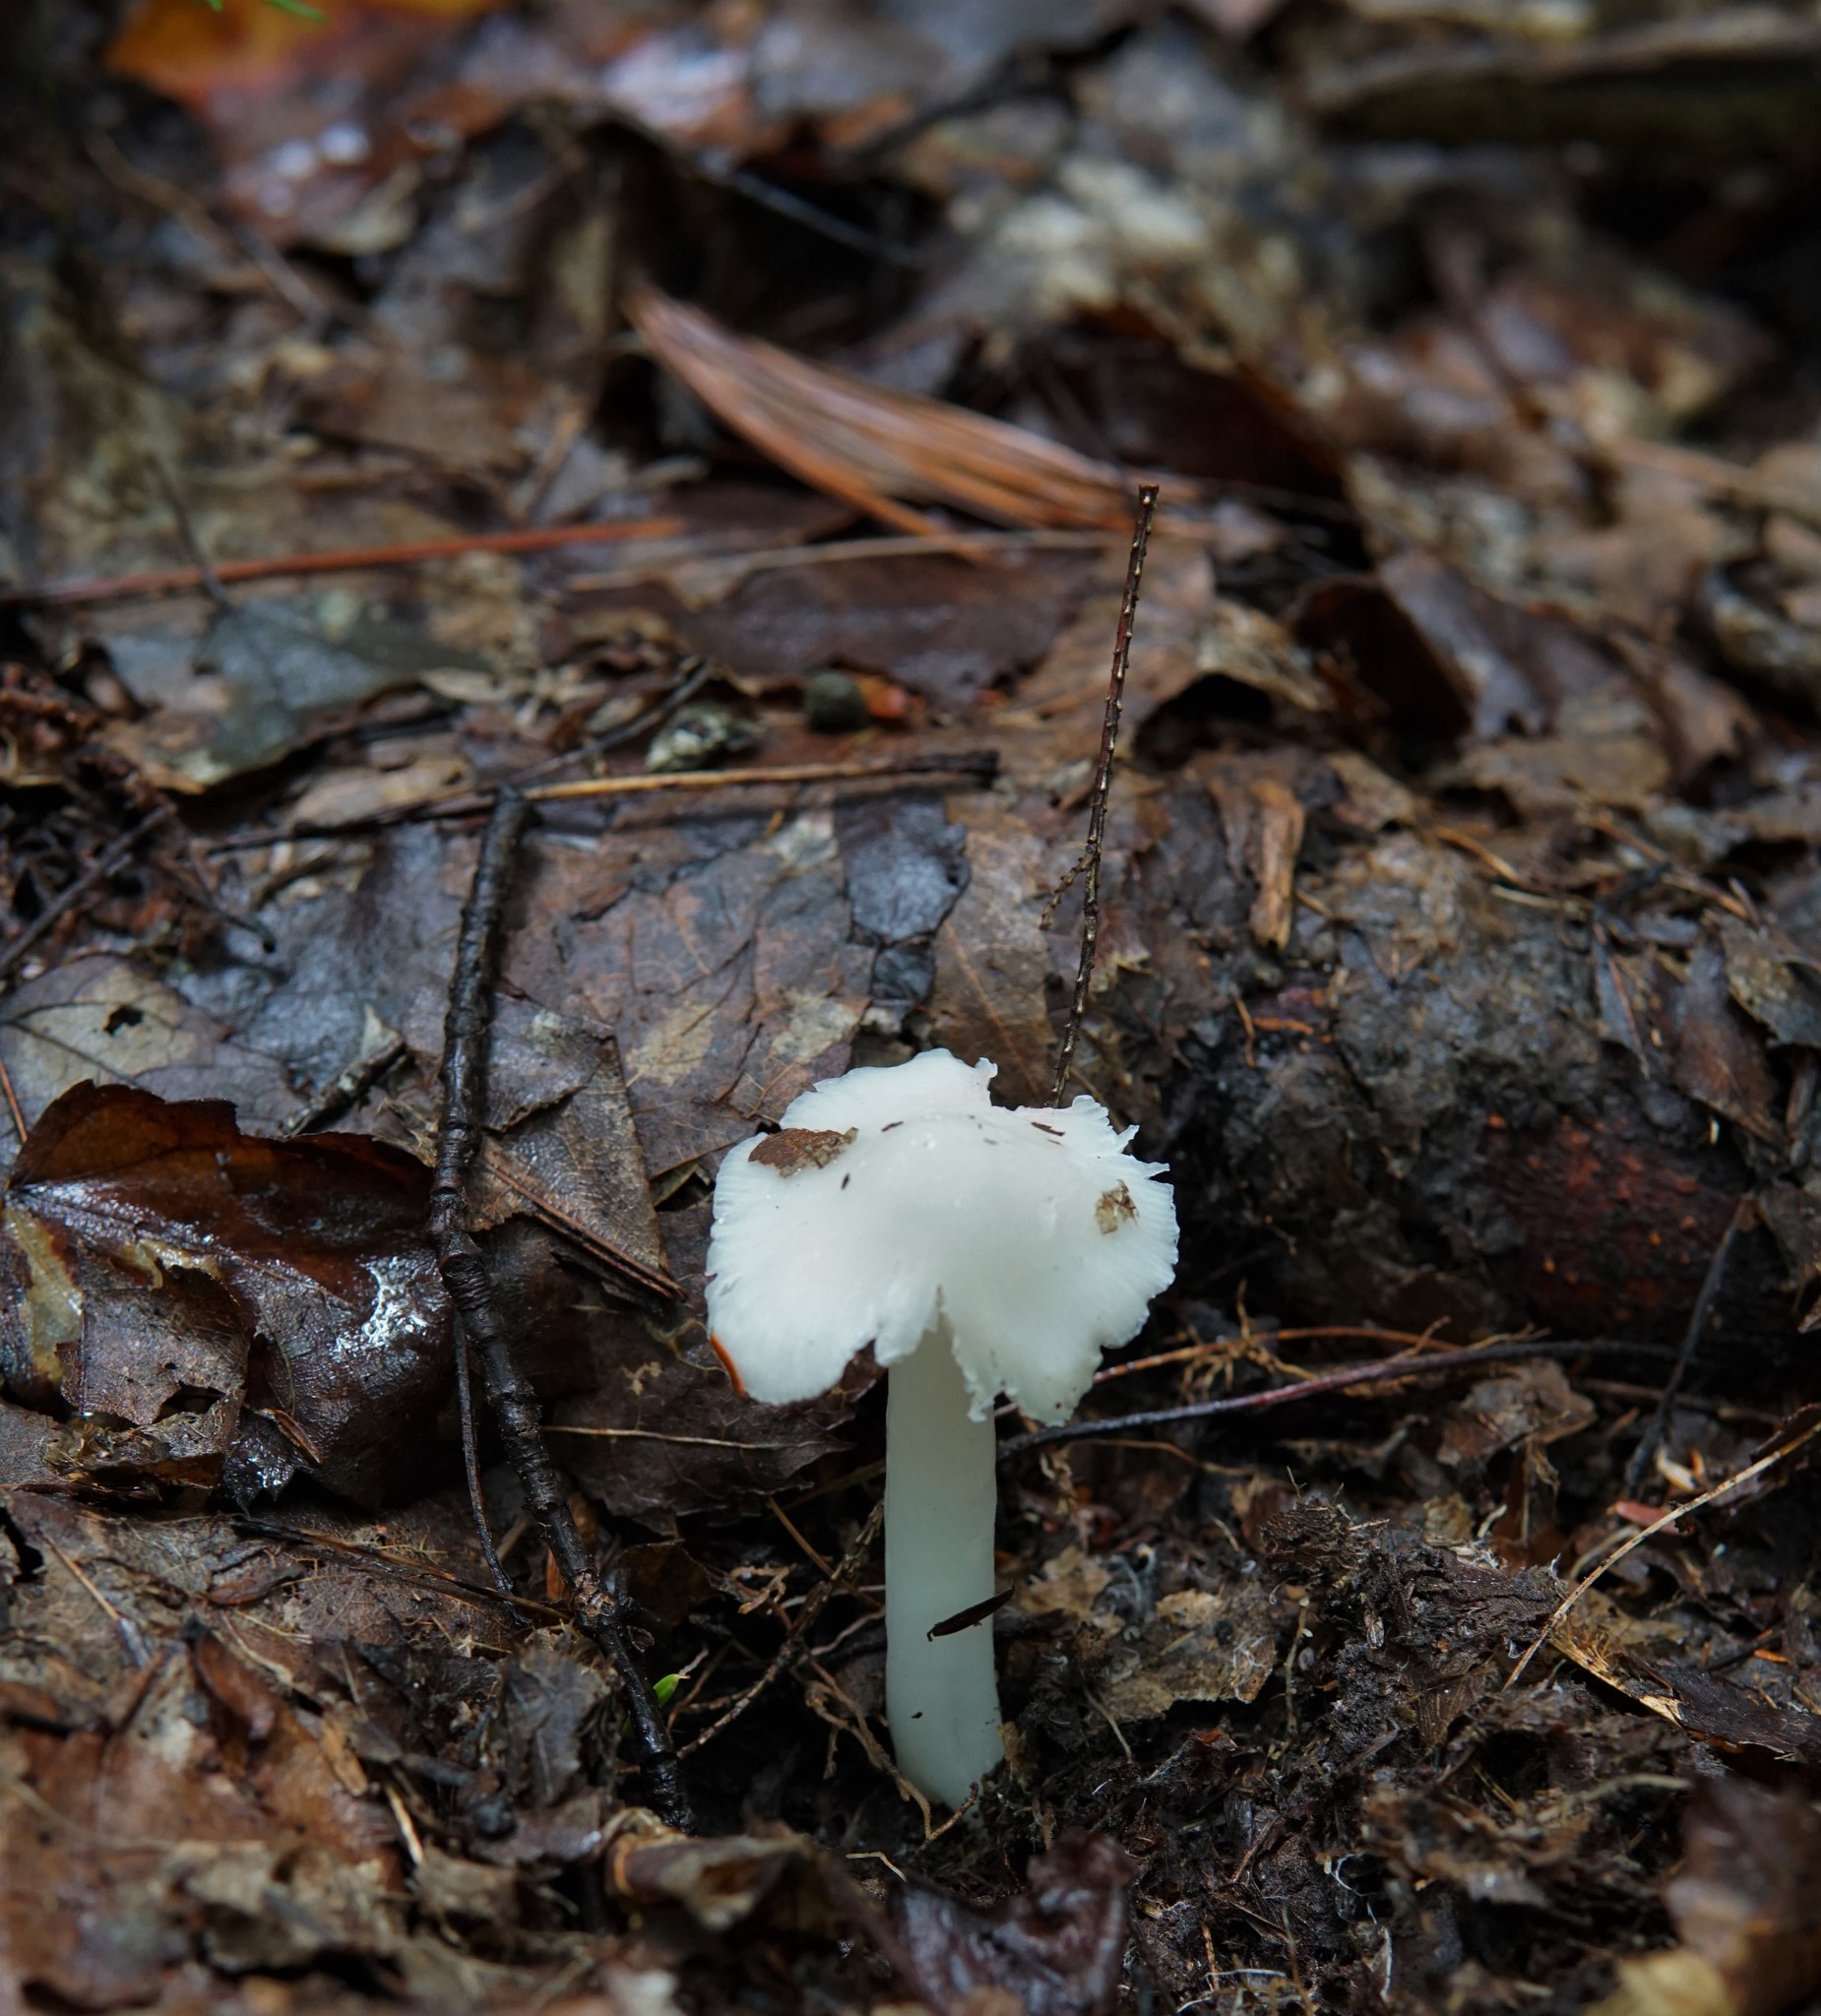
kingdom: Fungi
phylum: Basidiomycota
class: Agaricomycetes
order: Agaricales
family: Hygrophoraceae
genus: Humidicutis
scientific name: Humidicutis pura
